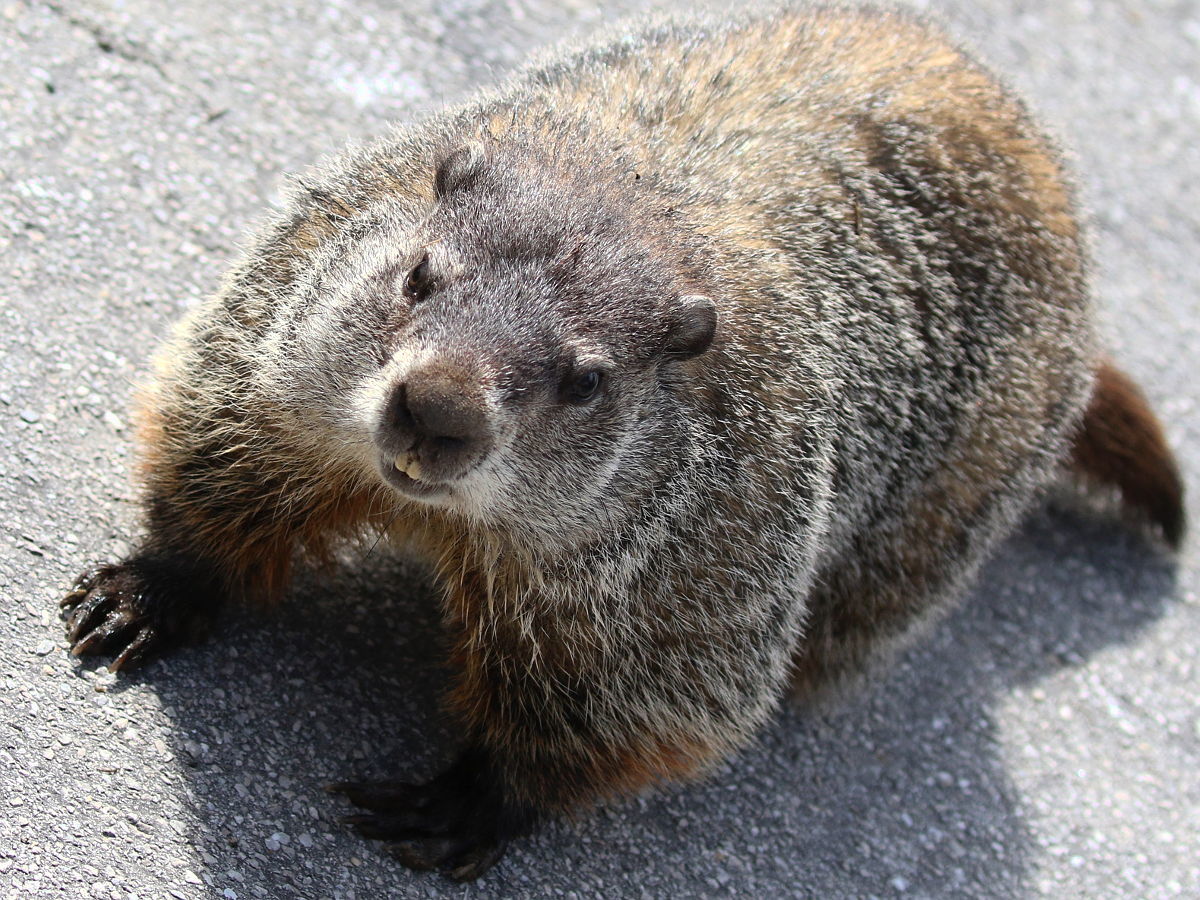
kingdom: Animalia
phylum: Chordata
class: Mammalia
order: Rodentia
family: Sciuridae
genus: Marmota
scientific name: Marmota monax
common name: Groundhog
